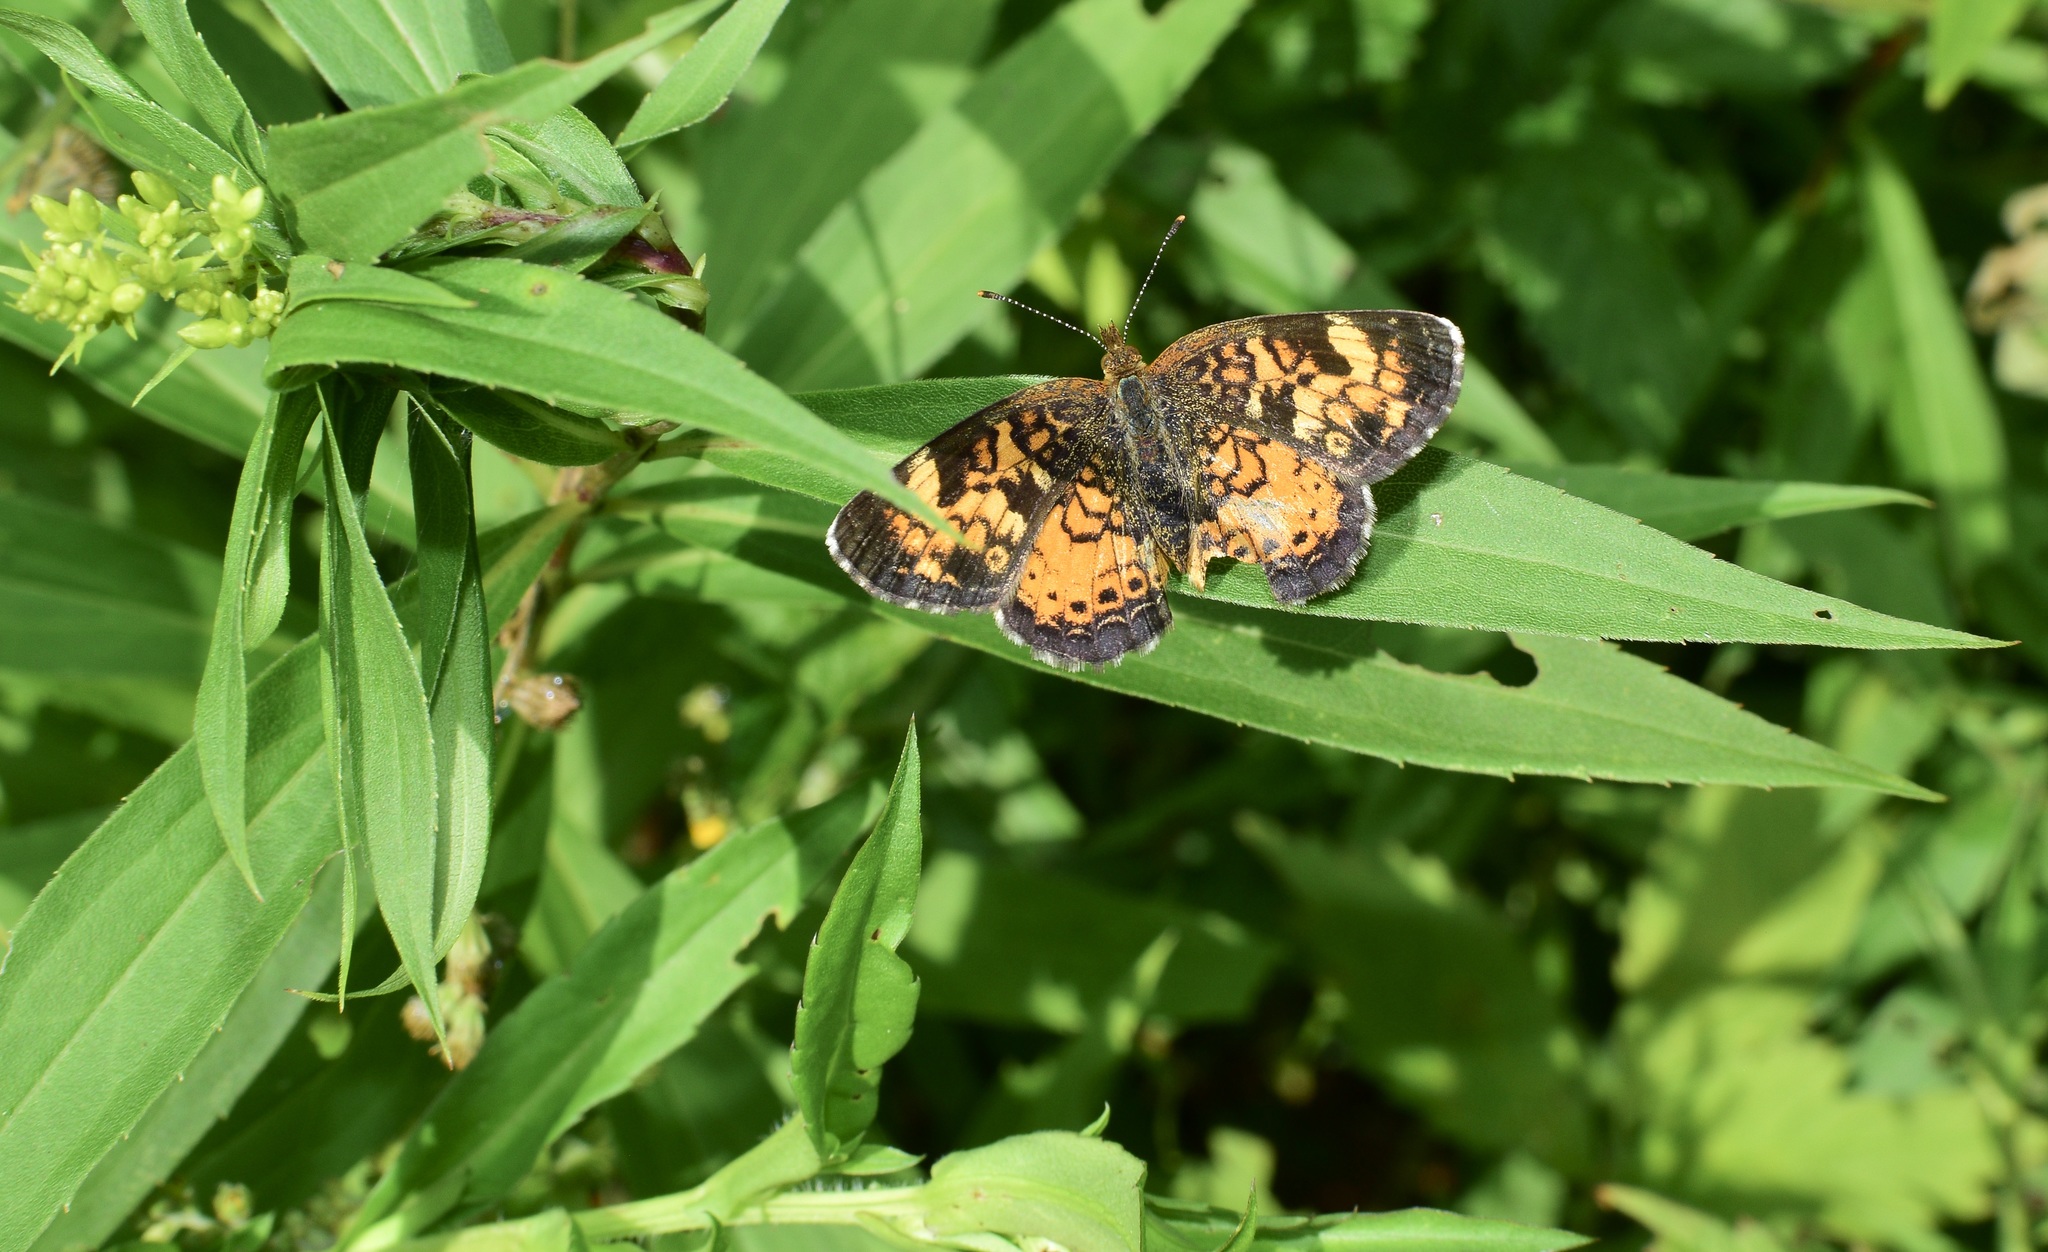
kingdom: Animalia
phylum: Arthropoda
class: Insecta
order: Lepidoptera
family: Nymphalidae
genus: Phyciodes
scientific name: Phyciodes tharos
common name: Pearl crescent
